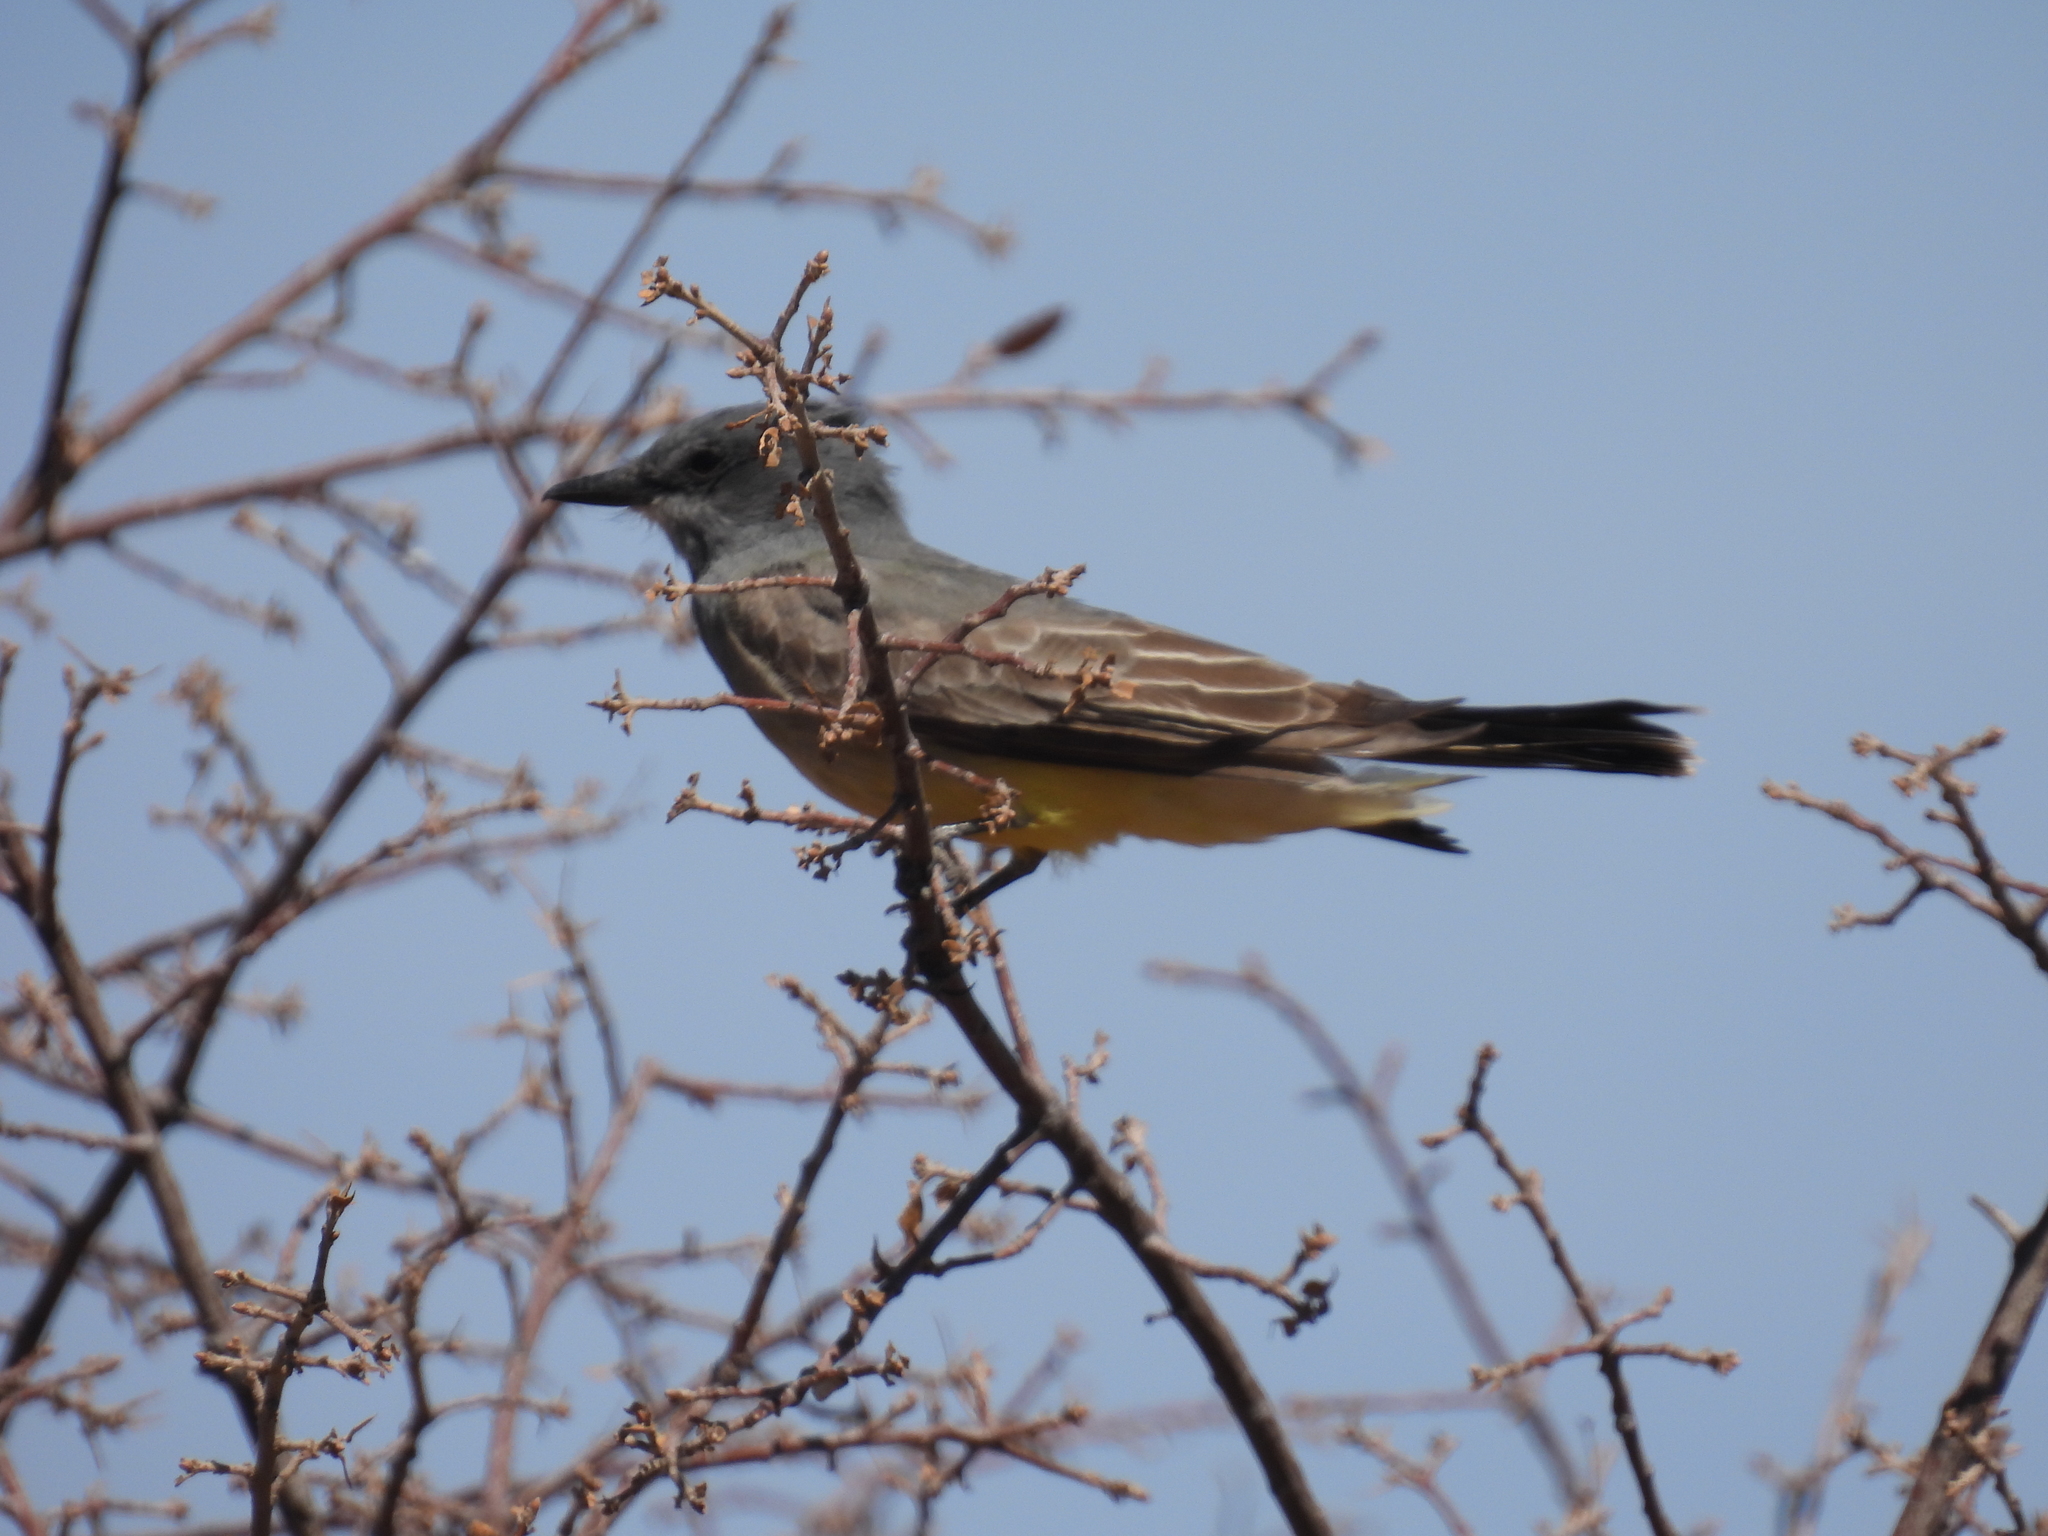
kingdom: Animalia
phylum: Chordata
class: Aves
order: Passeriformes
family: Tyrannidae
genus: Tyrannus
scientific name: Tyrannus vociferans
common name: Cassin's kingbird
